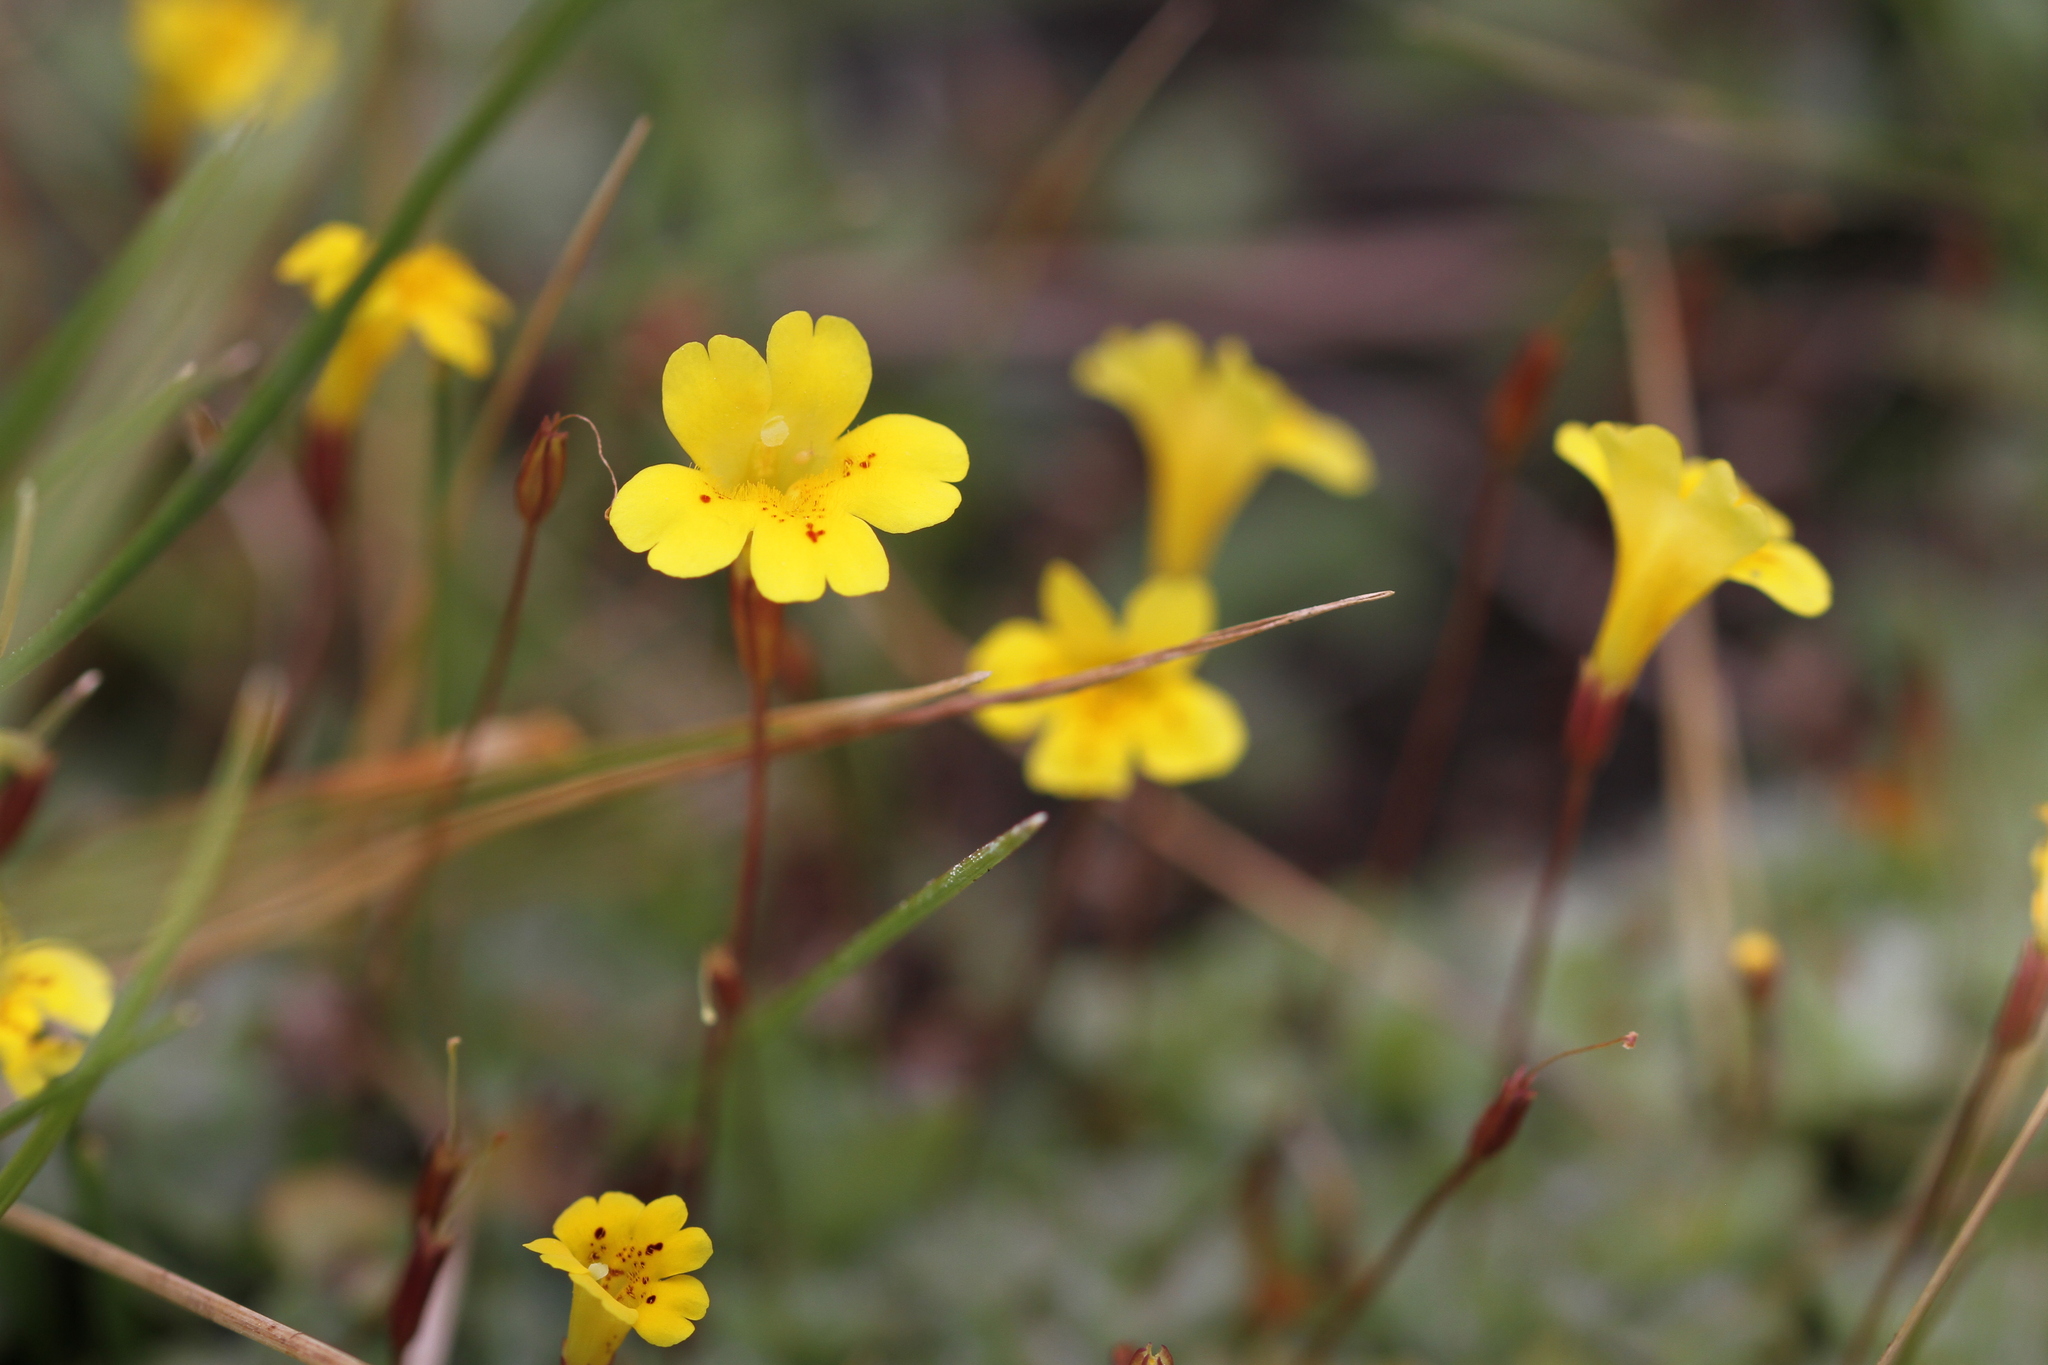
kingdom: Plantae
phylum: Tracheophyta
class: Magnoliopsida
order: Lamiales
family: Phrymaceae
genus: Erythranthe
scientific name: Erythranthe primuloides
